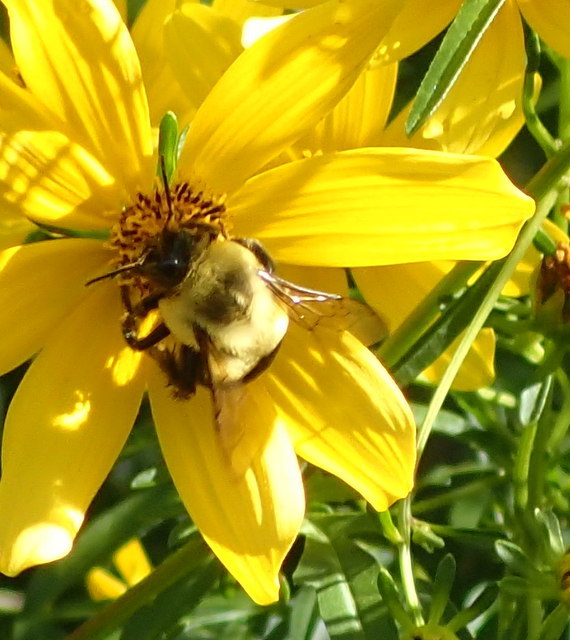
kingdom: Animalia
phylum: Arthropoda
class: Insecta
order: Hymenoptera
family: Apidae
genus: Bombus
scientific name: Bombus impatiens
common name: Common eastern bumble bee
